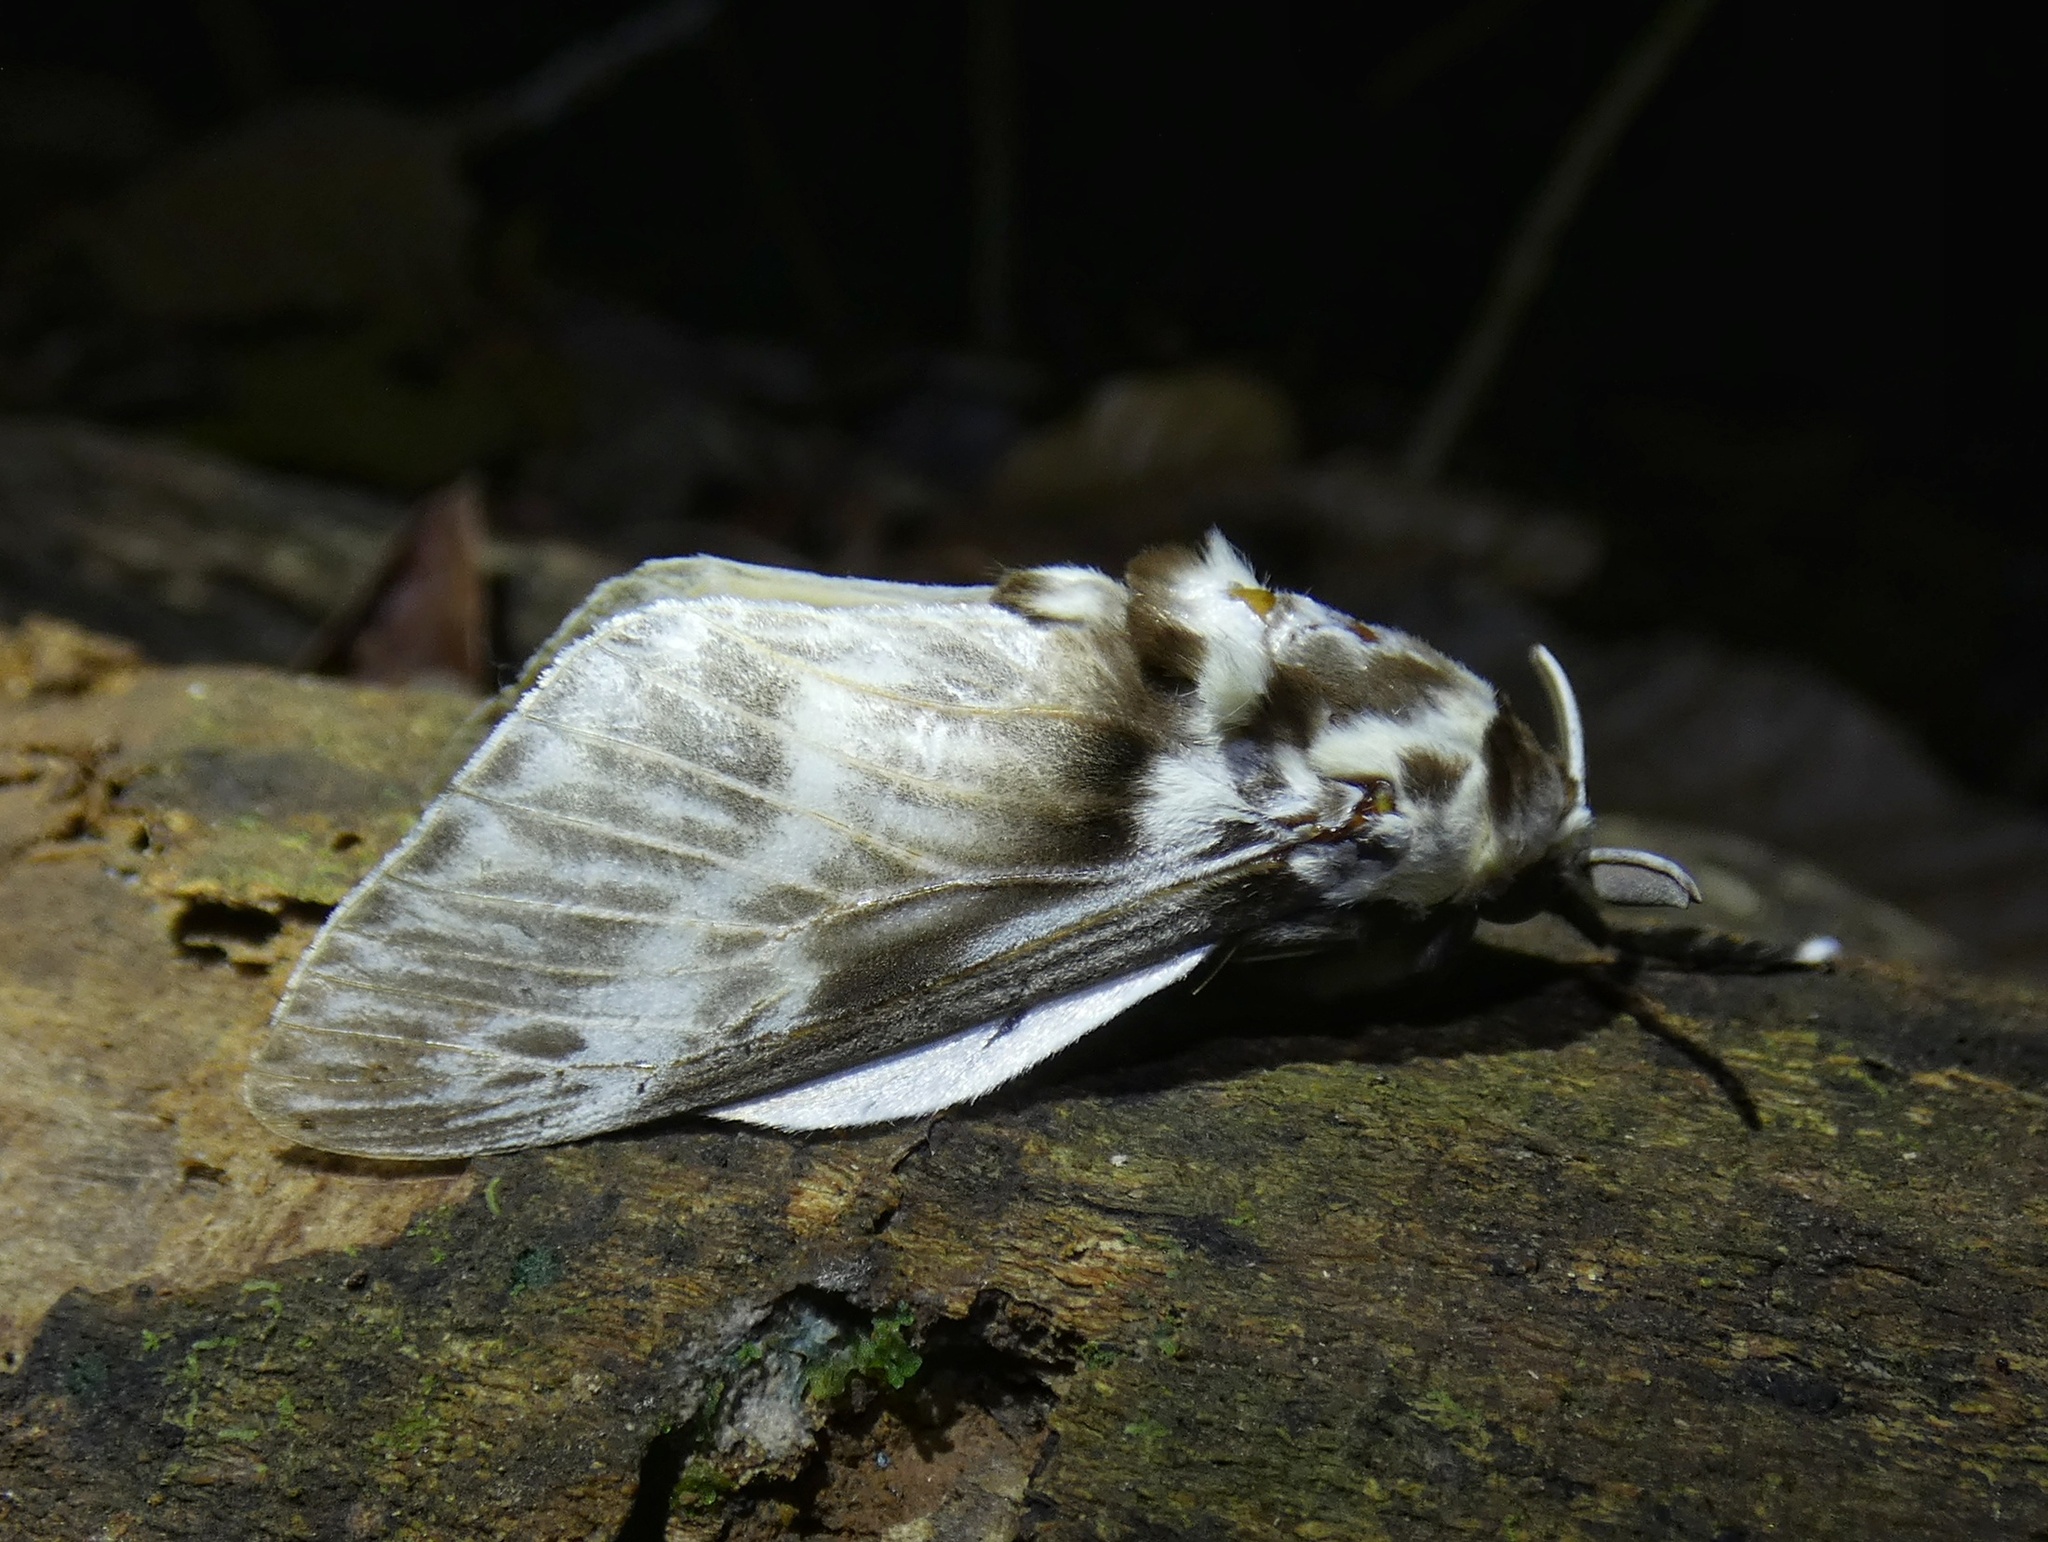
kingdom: Animalia
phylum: Arthropoda
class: Insecta
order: Lepidoptera
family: Megalopygidae
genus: Podalia
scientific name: Podalia orsilochus
